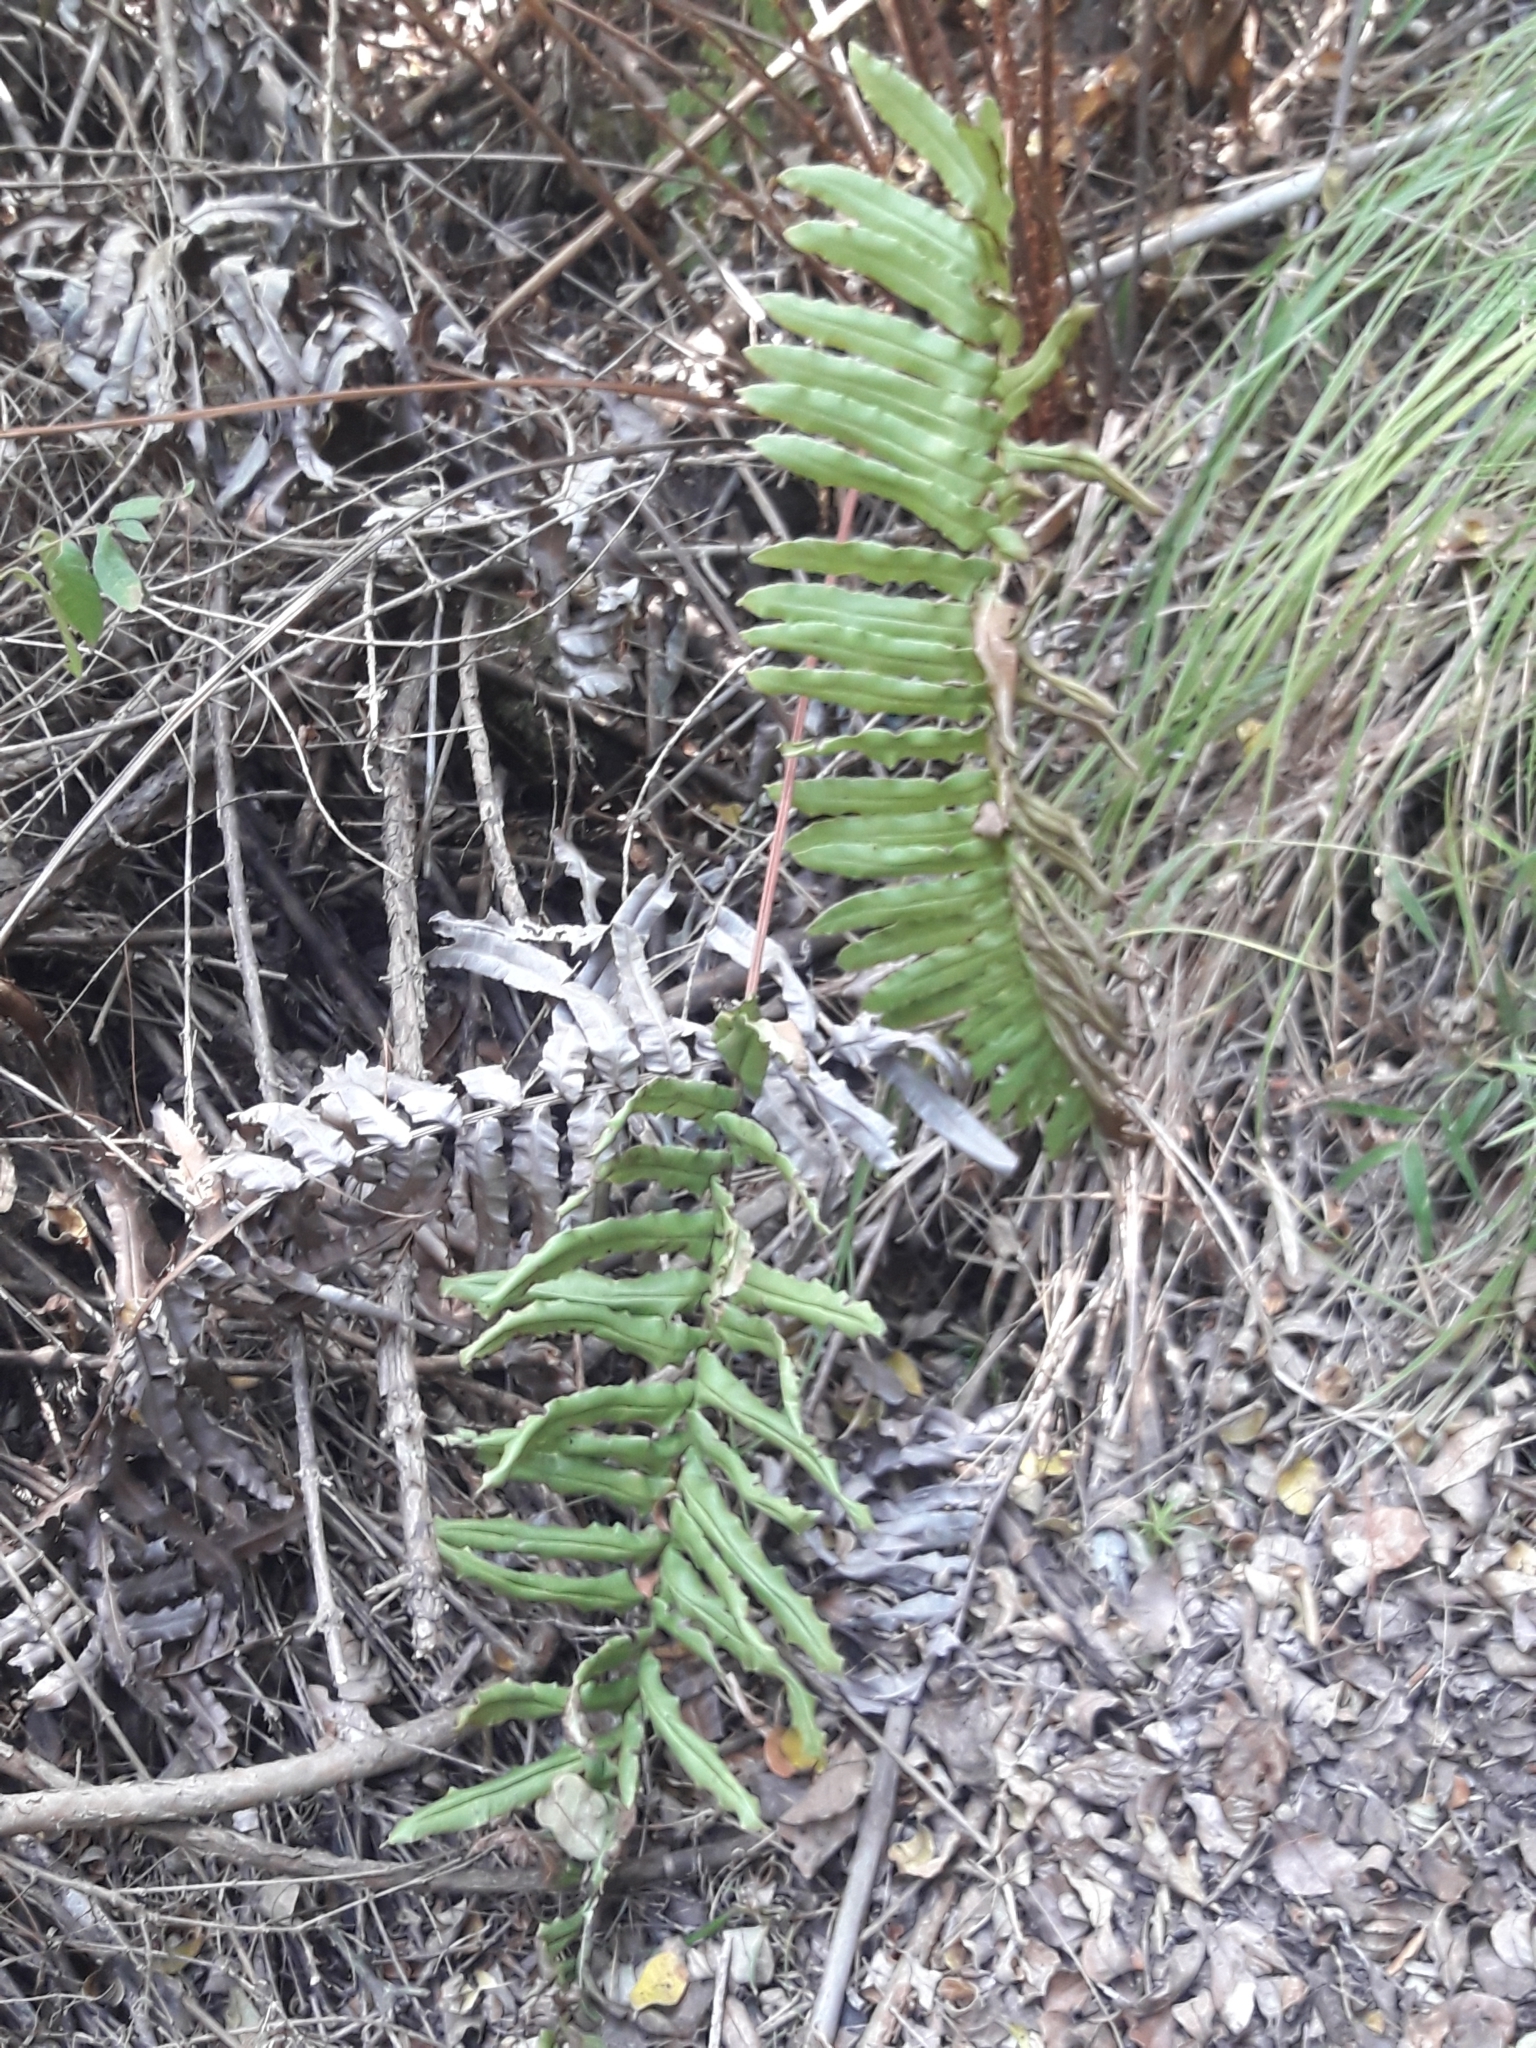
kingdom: Plantae
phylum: Tracheophyta
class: Polypodiopsida
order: Polypodiales
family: Blechnaceae
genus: Parablechnum
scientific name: Parablechnum chilense
